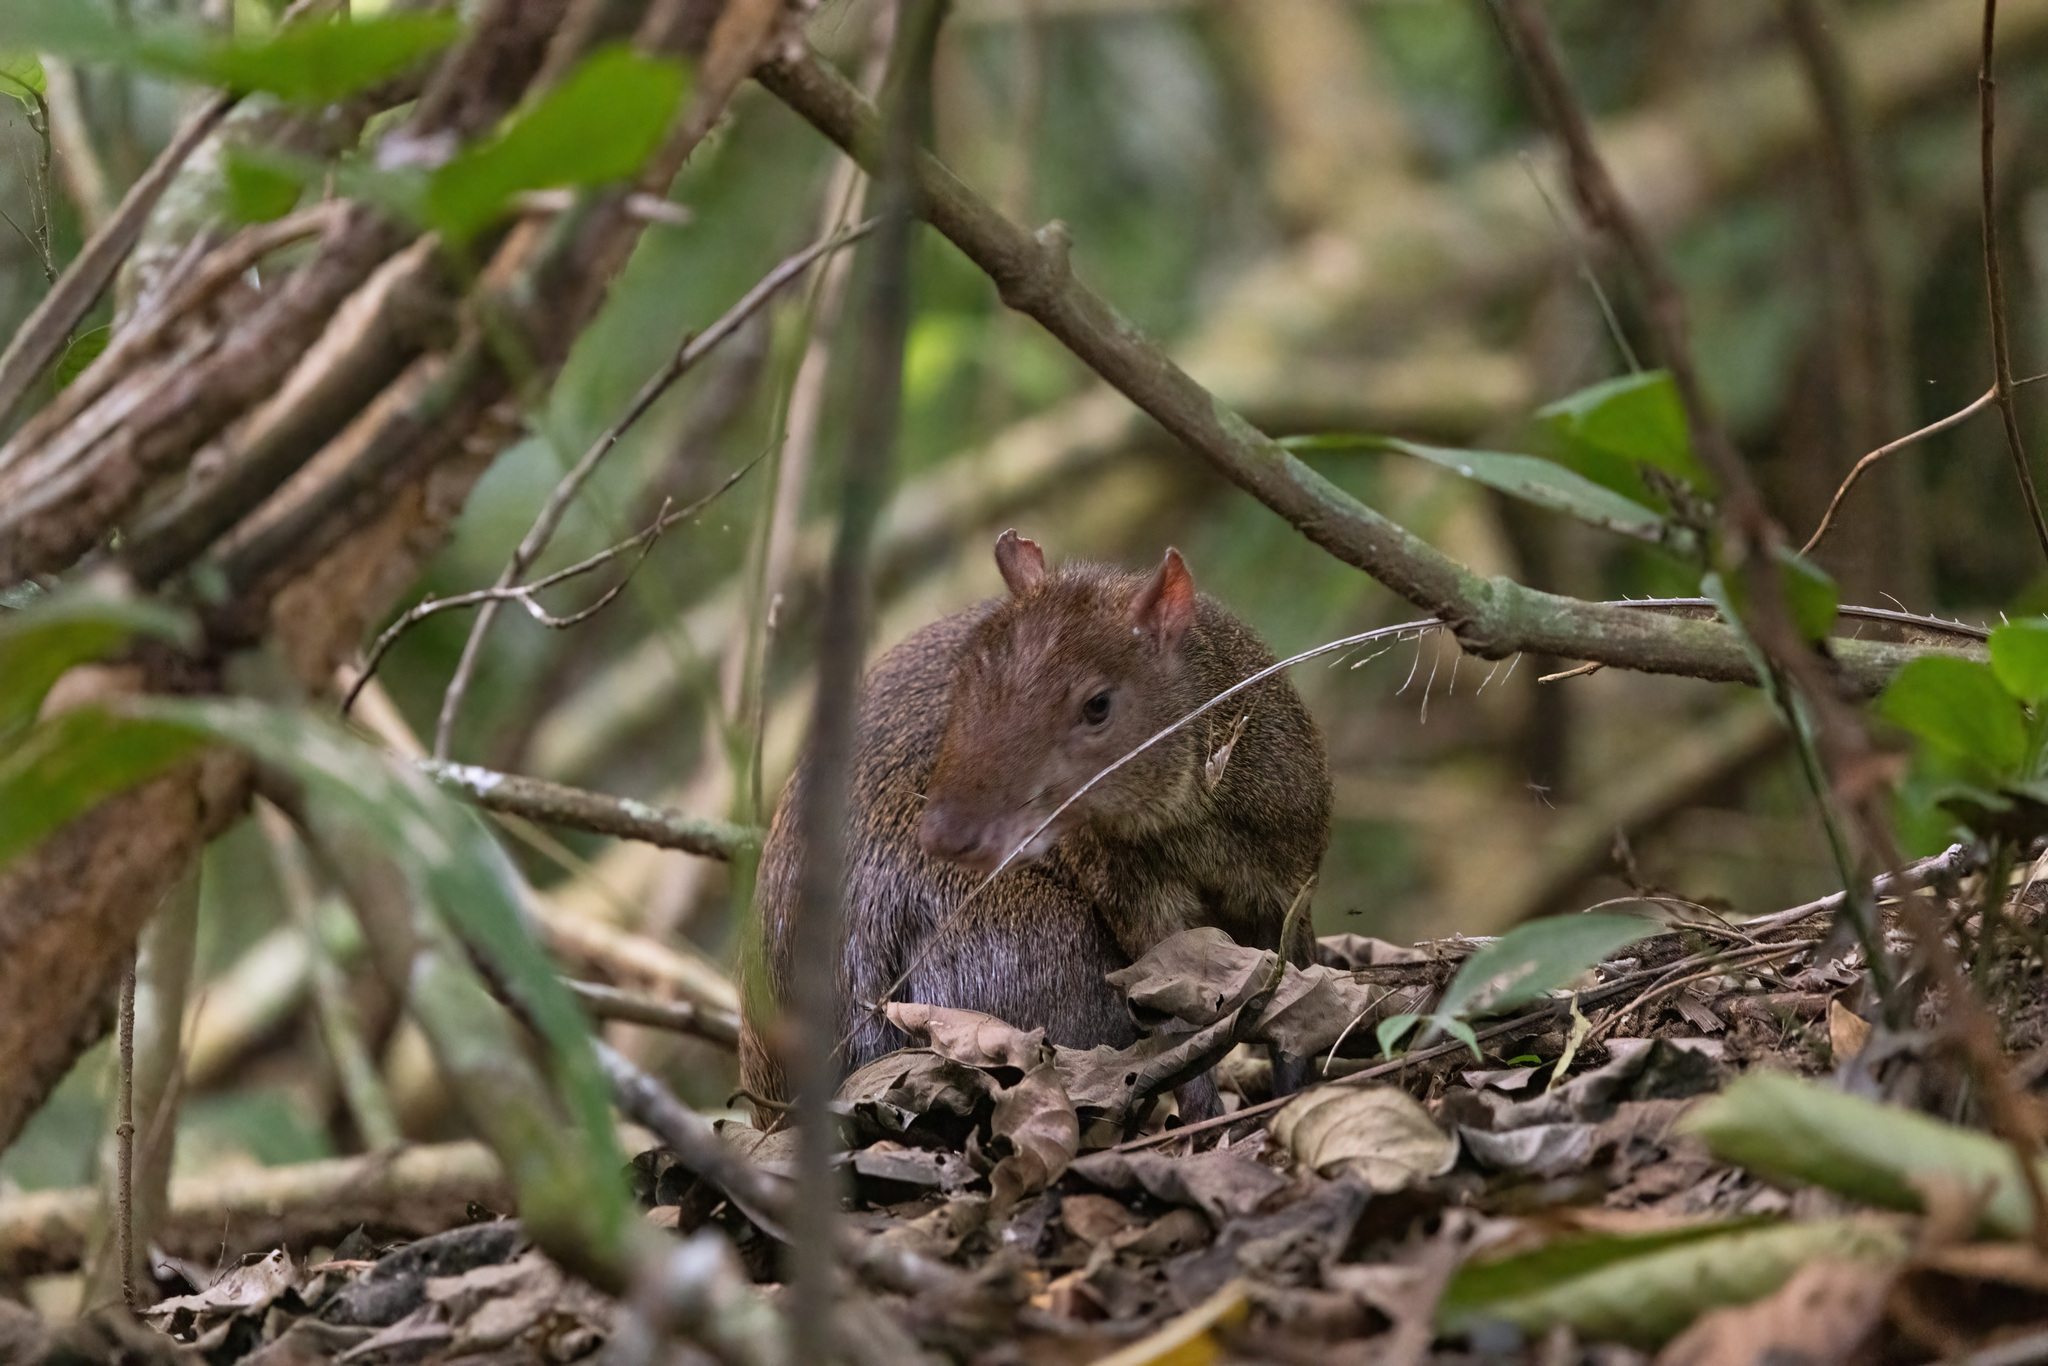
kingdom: Animalia
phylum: Chordata
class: Mammalia
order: Rodentia
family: Dasyproctidae
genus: Dasyprocta
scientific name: Dasyprocta punctata
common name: Central american agouti
